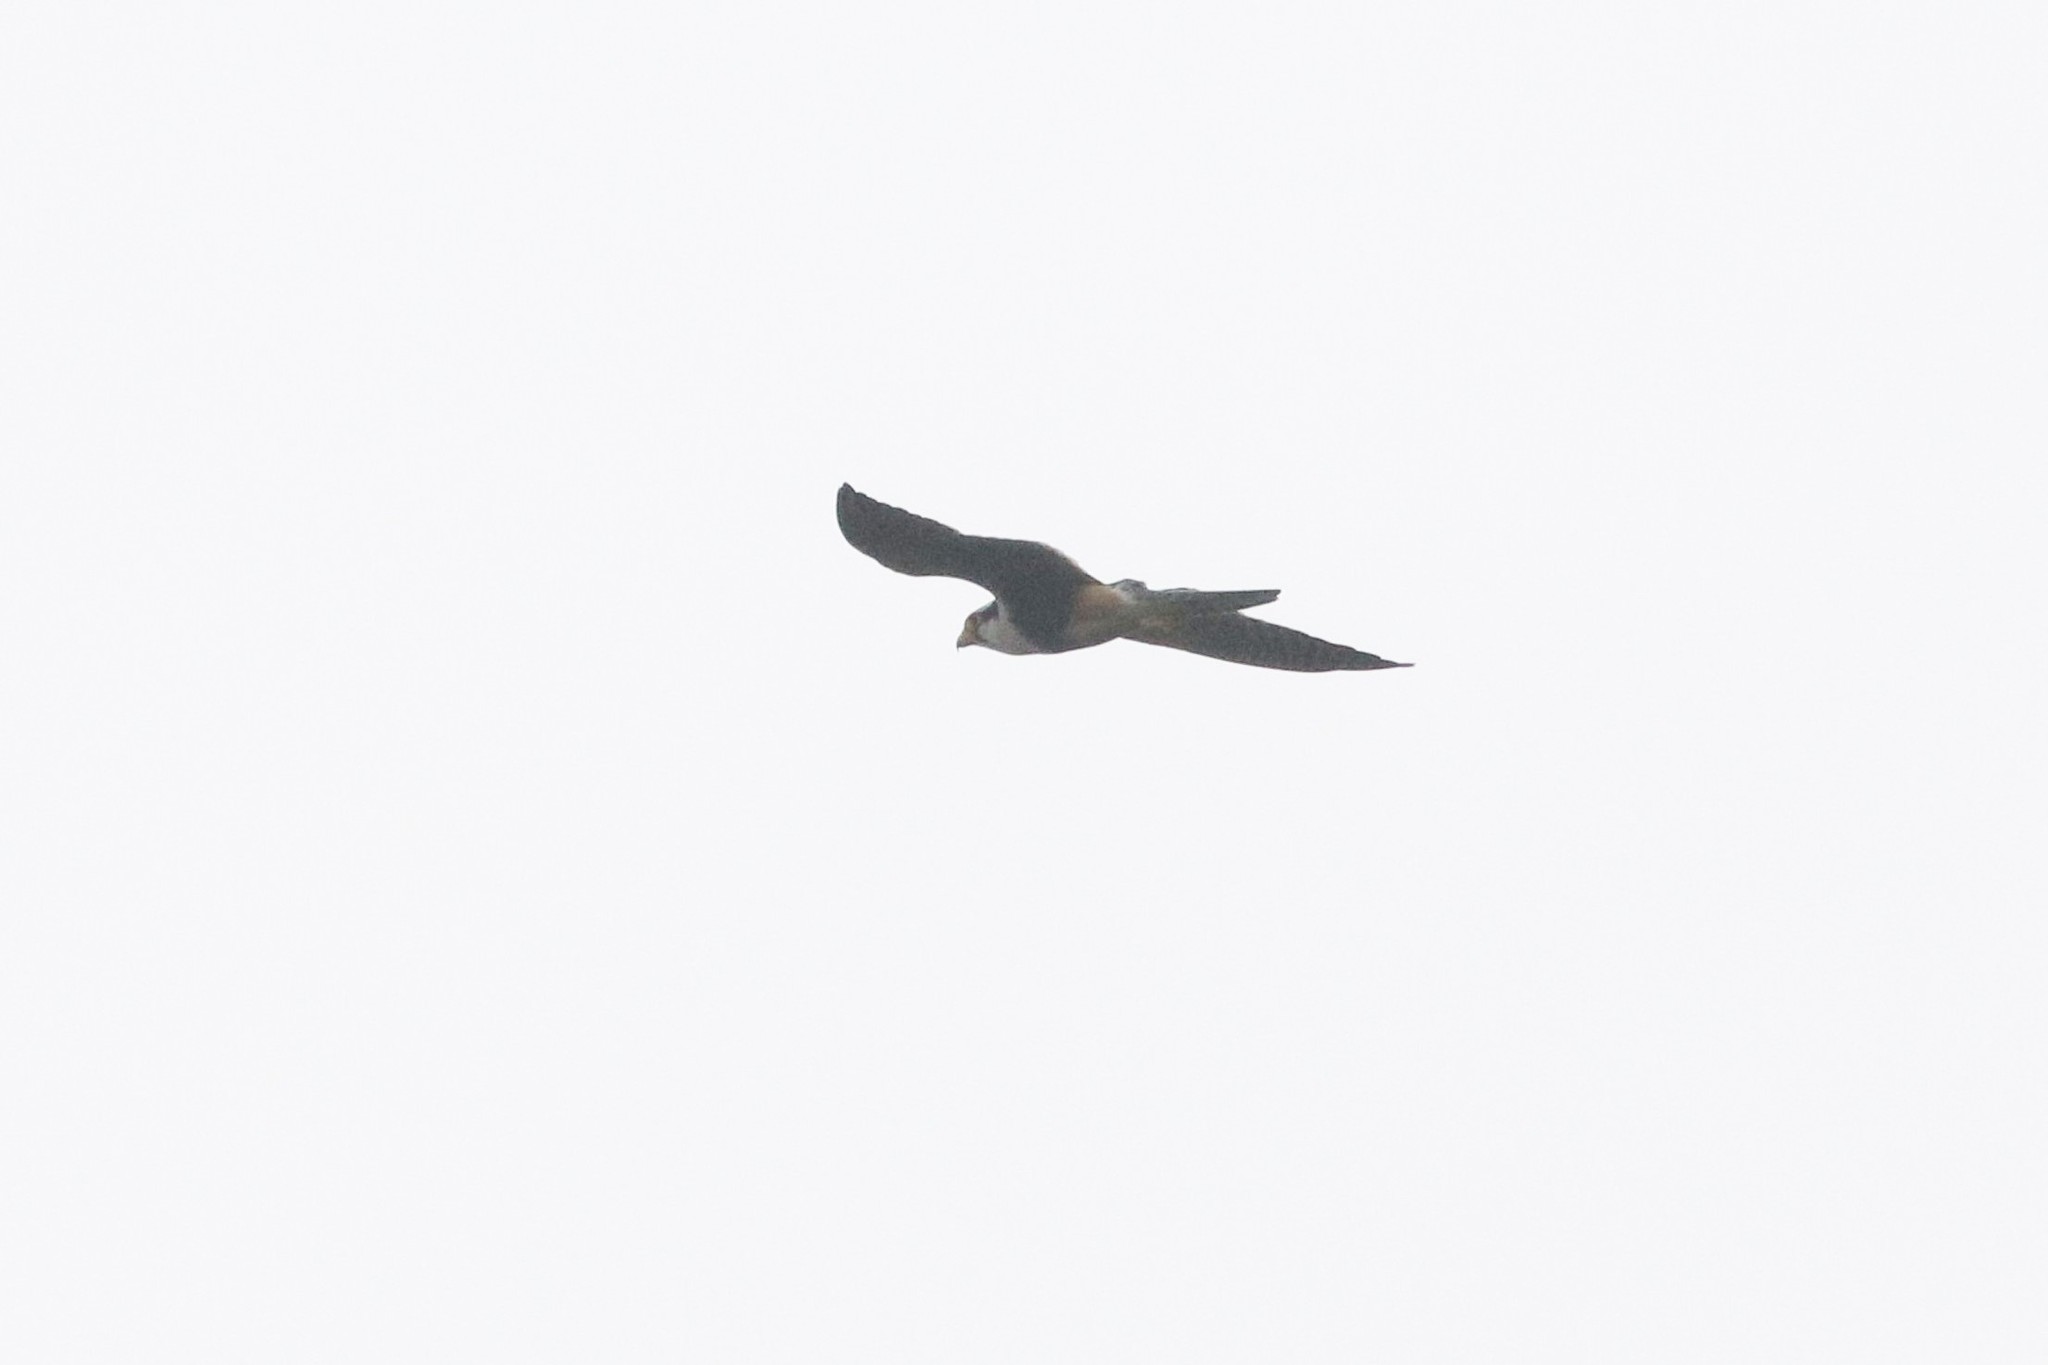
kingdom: Animalia
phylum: Chordata
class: Aves
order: Falconiformes
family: Falconidae
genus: Falco
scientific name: Falco femoralis
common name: Aplomado falcon
